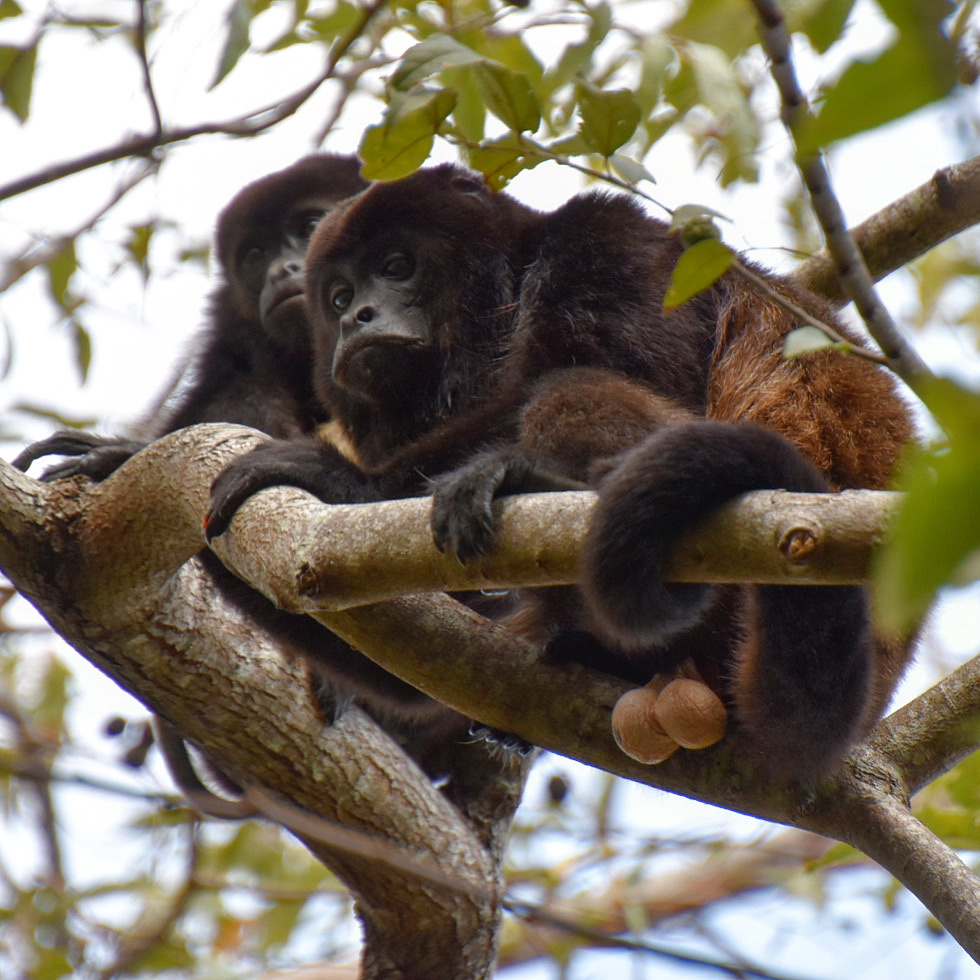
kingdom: Animalia
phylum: Chordata
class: Mammalia
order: Primates
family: Atelidae
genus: Alouatta
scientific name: Alouatta palliata
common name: Mantled howler
